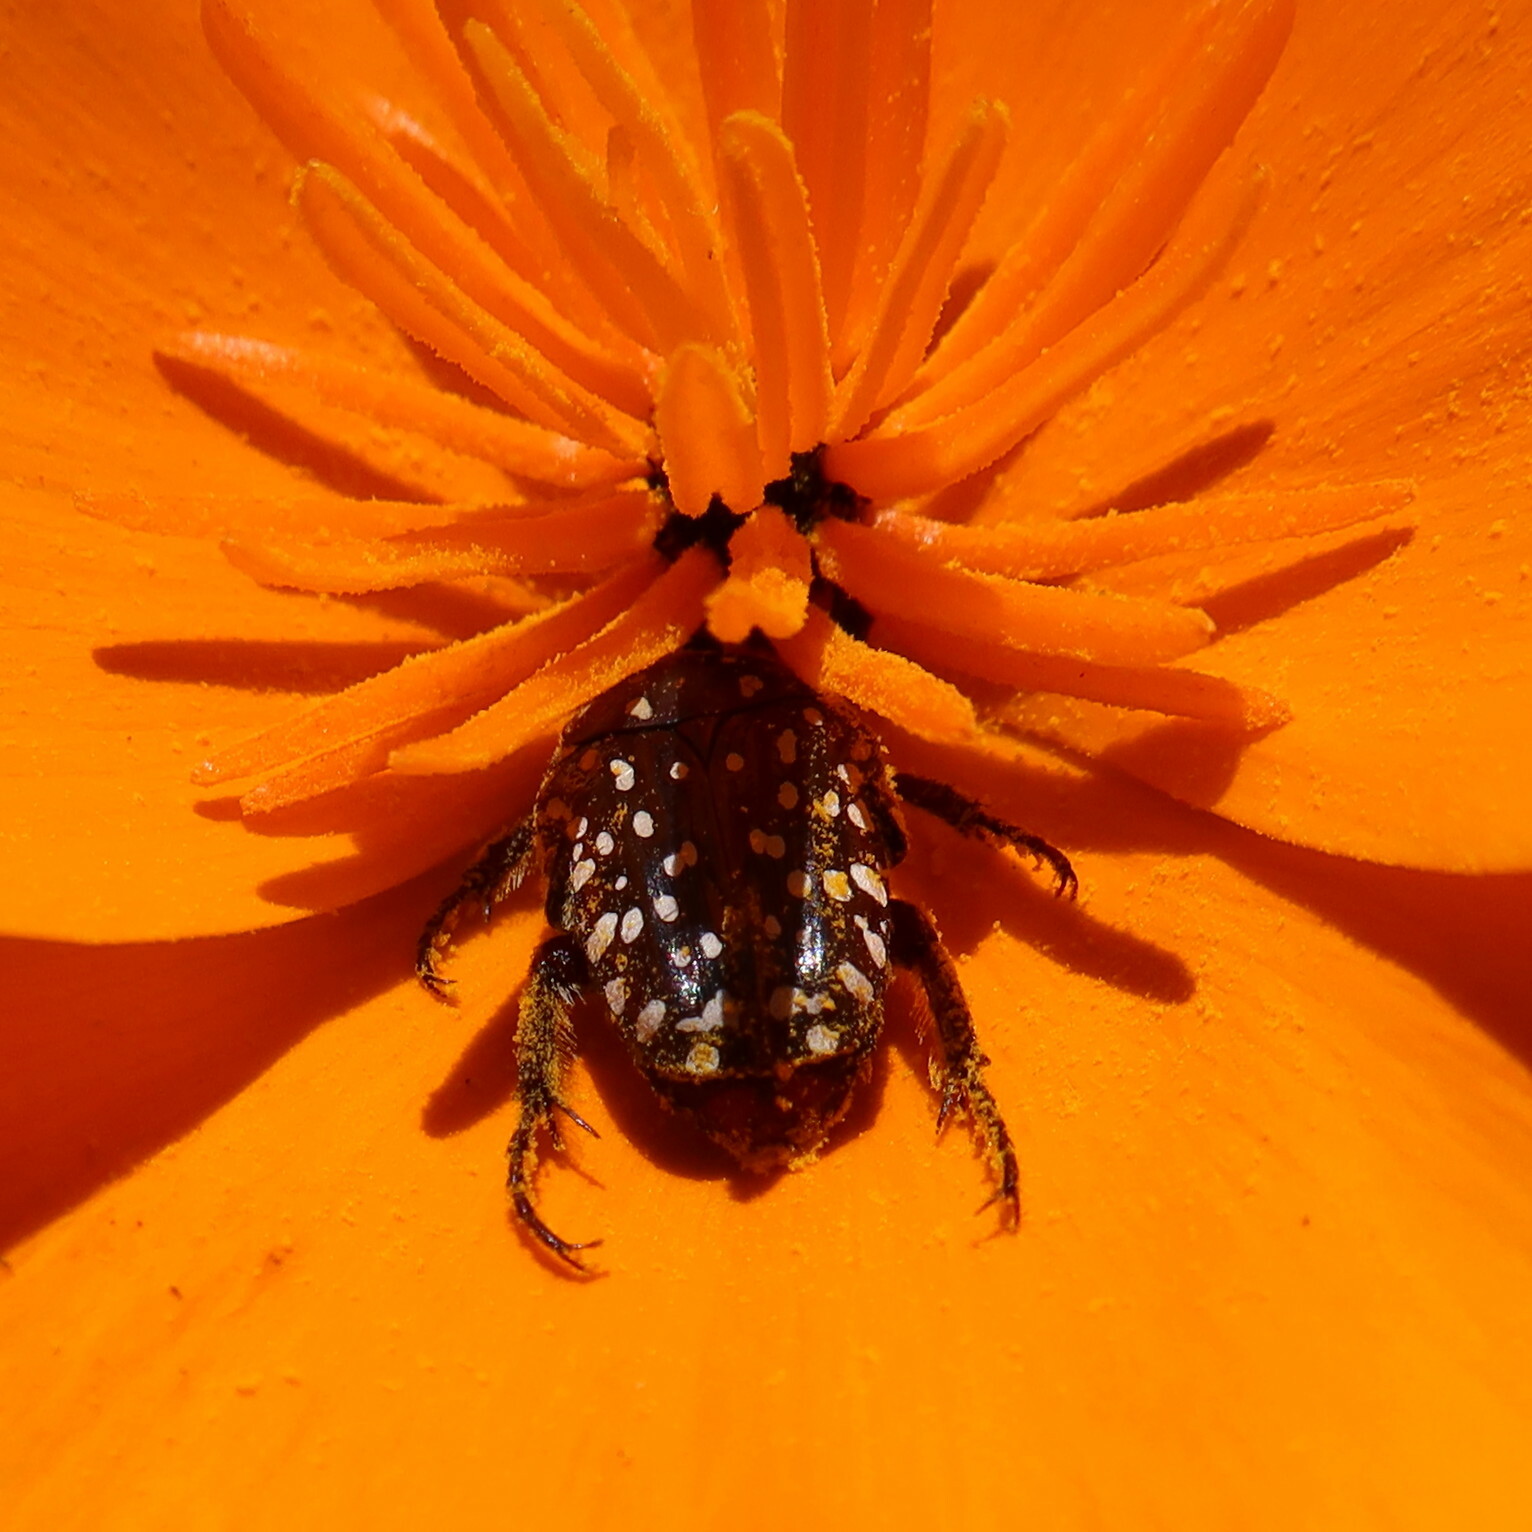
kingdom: Animalia
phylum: Arthropoda
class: Insecta
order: Coleoptera
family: Scarabaeidae
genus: Oxythyrea
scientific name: Oxythyrea
